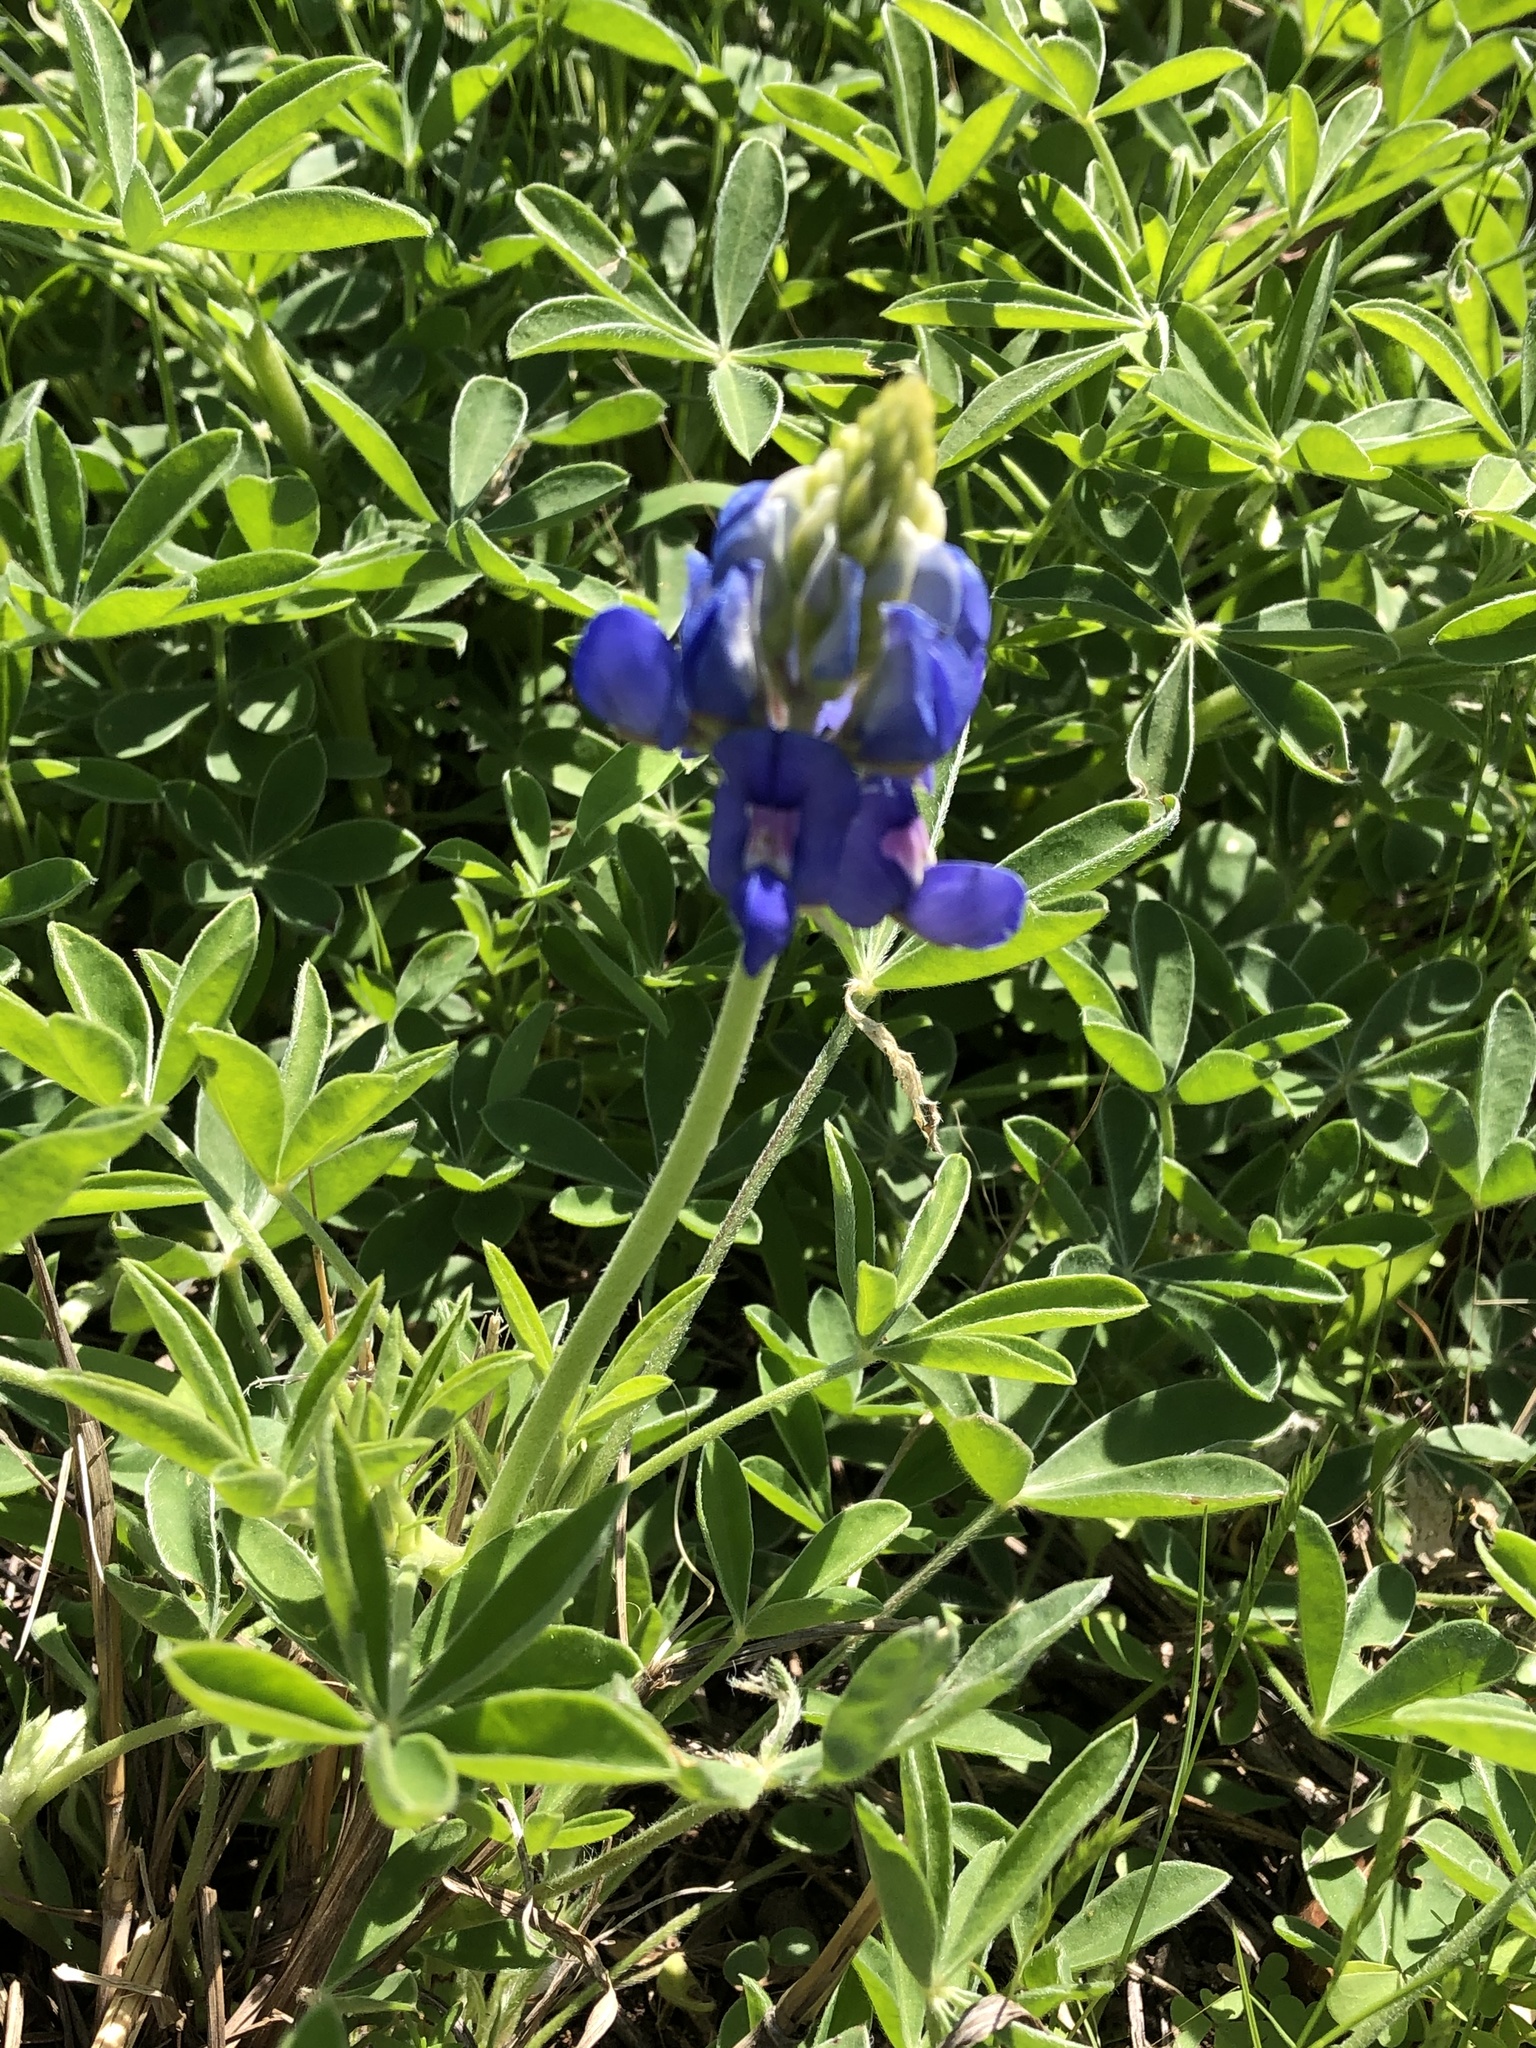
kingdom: Plantae
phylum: Tracheophyta
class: Magnoliopsida
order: Fabales
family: Fabaceae
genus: Lupinus
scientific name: Lupinus texensis
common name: Texas bluebonnet
